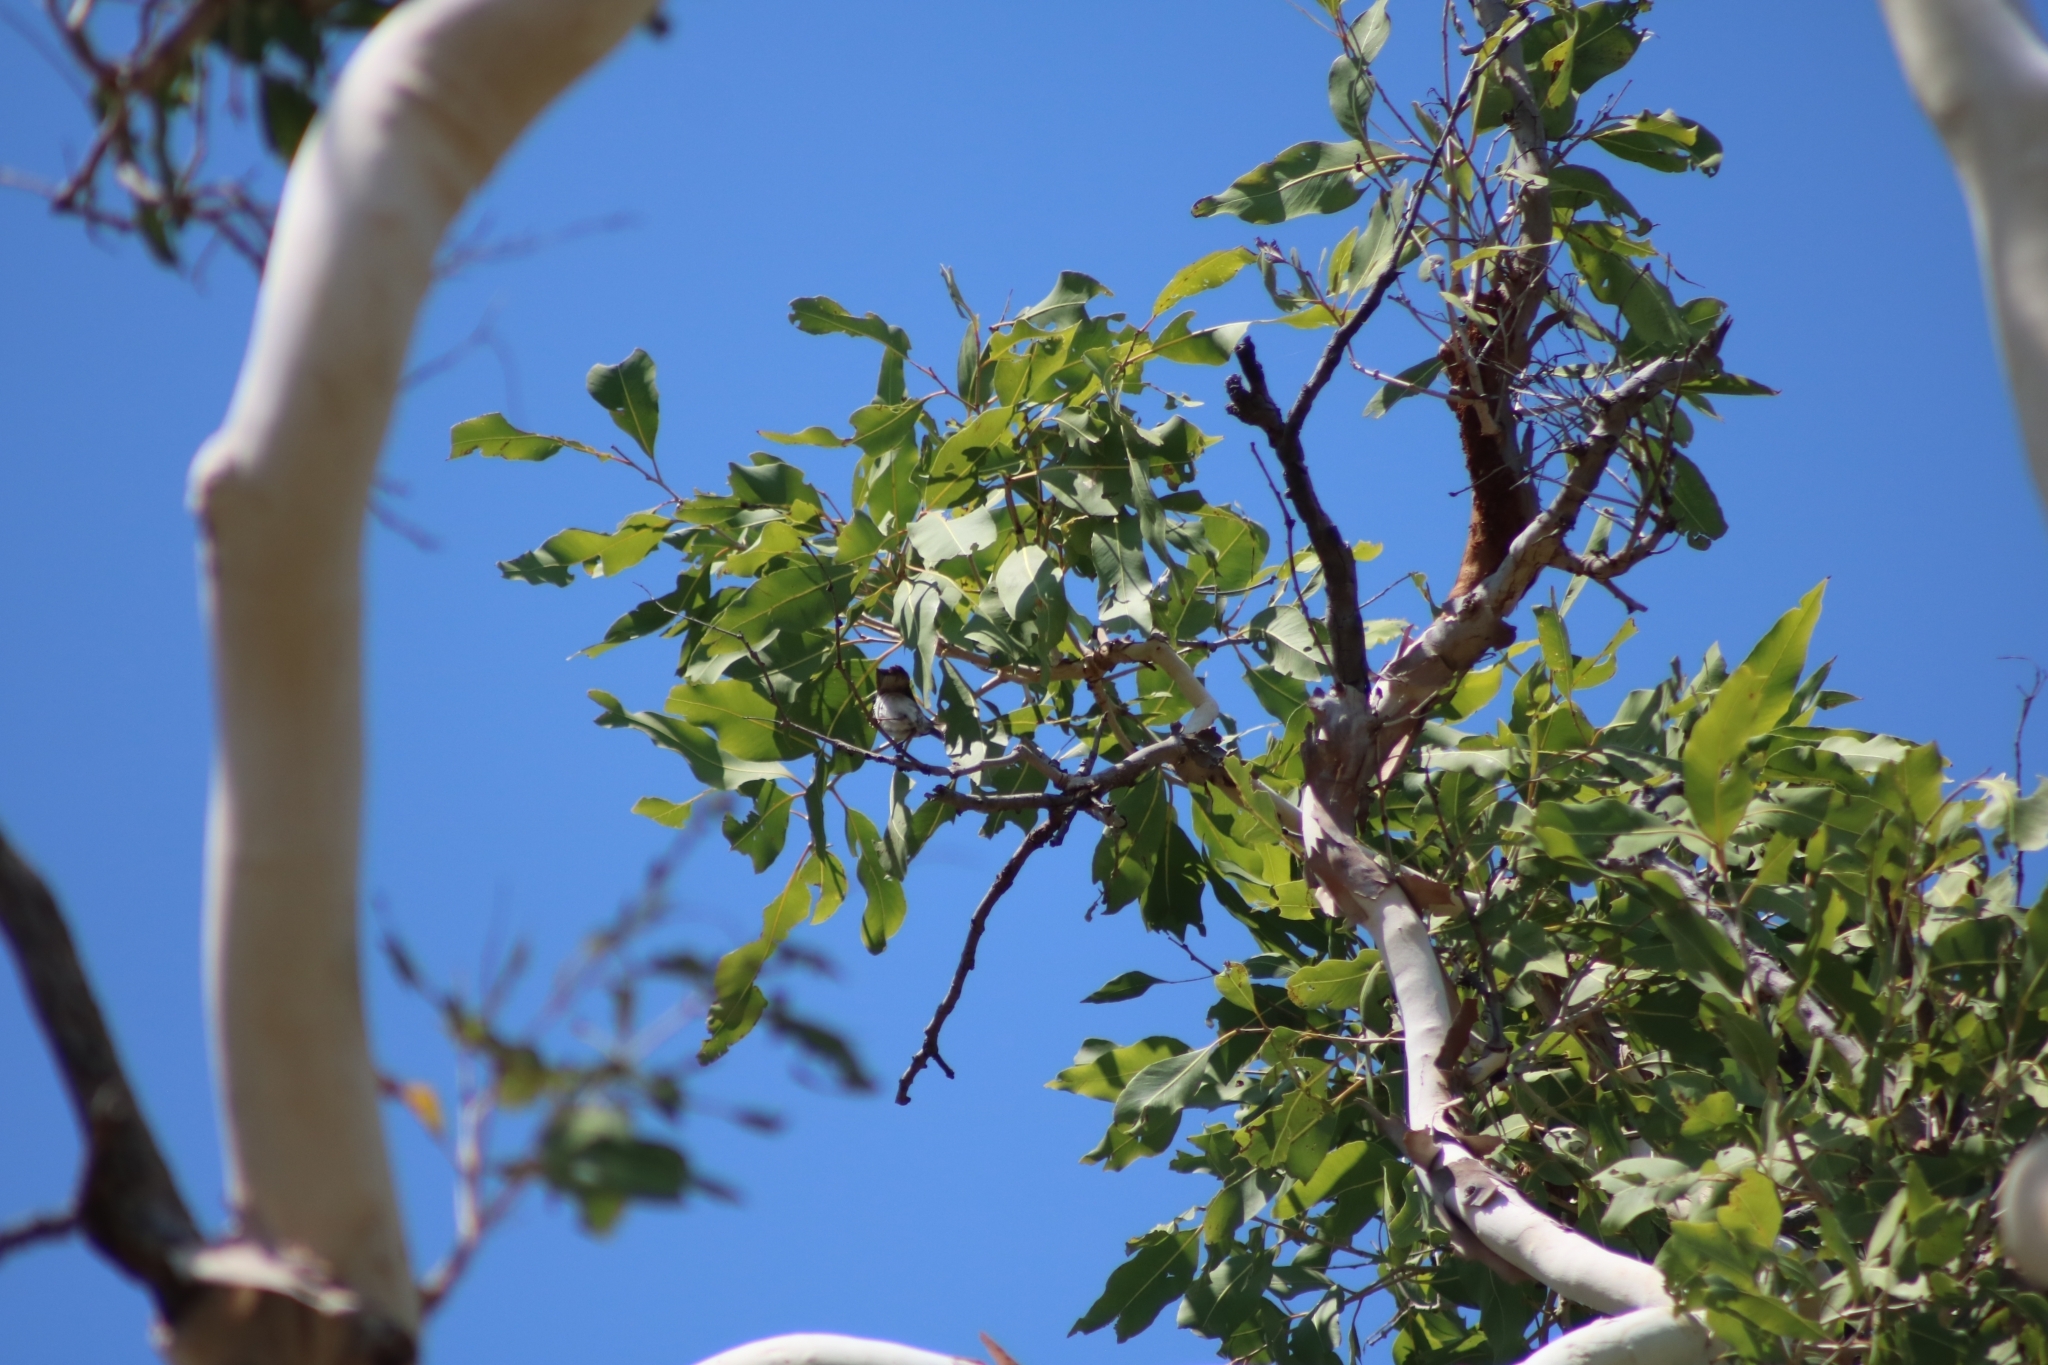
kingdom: Animalia
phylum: Chordata
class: Aves
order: Passeriformes
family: Meliphagidae
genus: Melithreptus
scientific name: Melithreptus albogularis
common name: White-throated honeyeater
